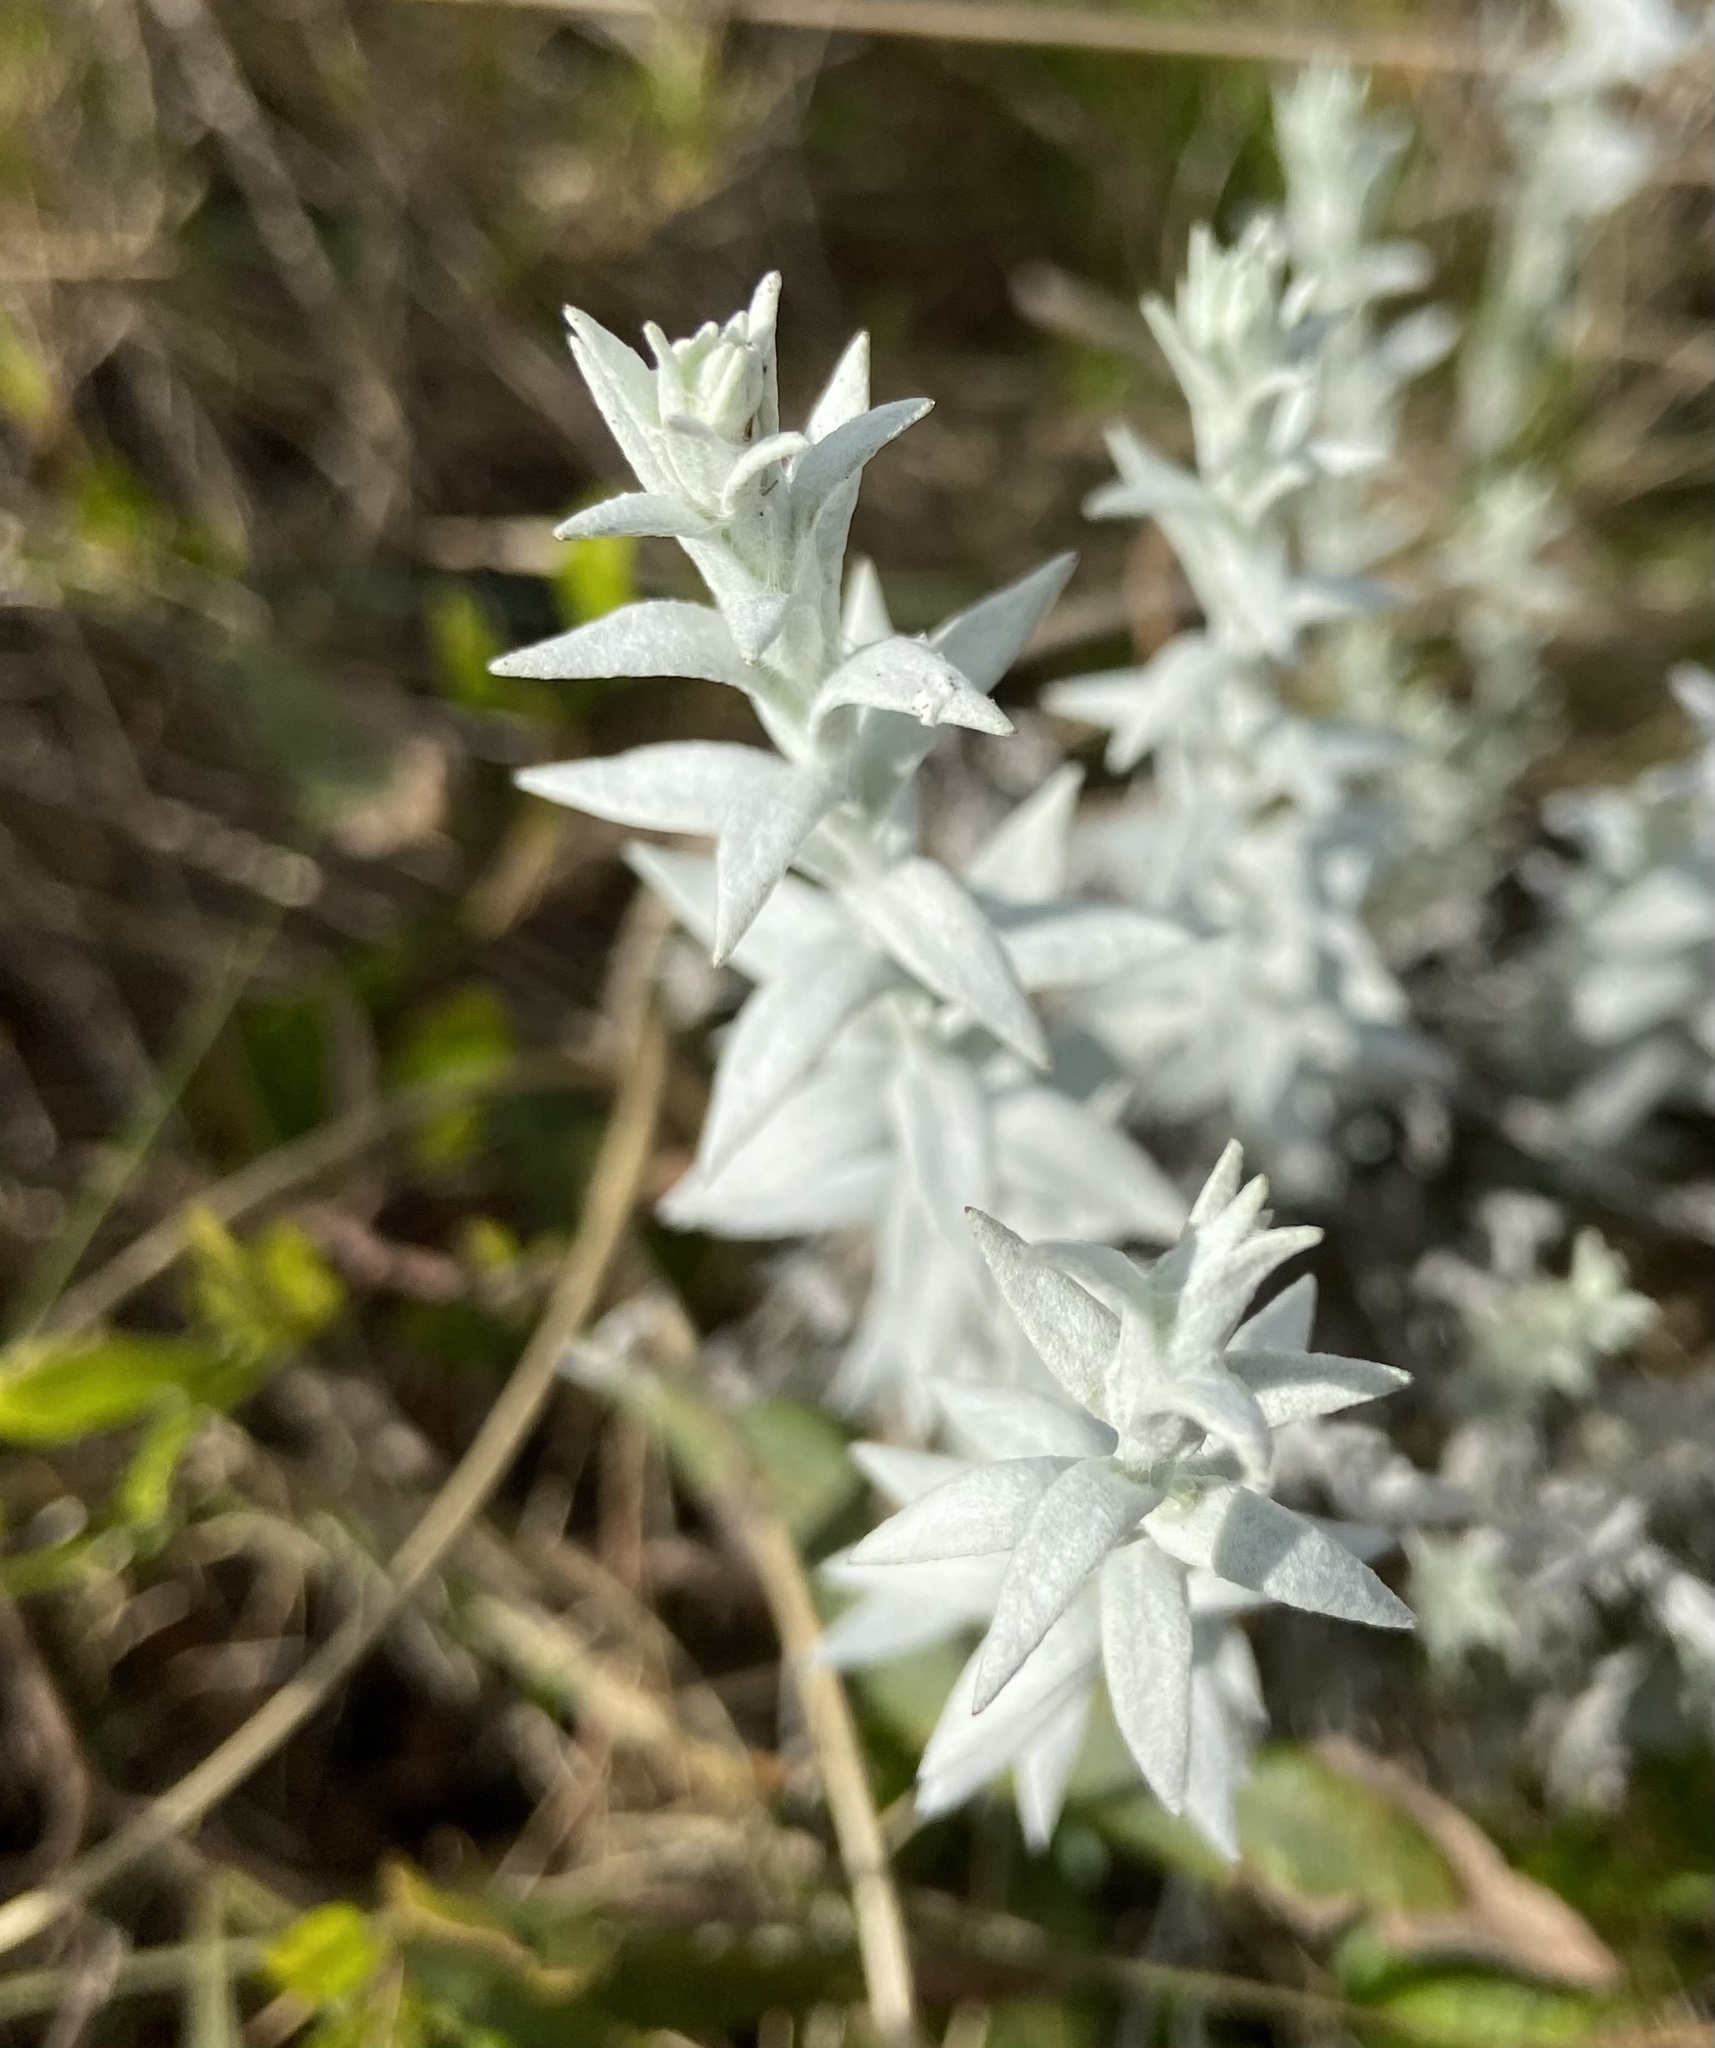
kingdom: Plantae
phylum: Tracheophyta
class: Magnoliopsida
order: Asterales
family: Asteraceae
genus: Lucilia
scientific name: Lucilia acutifolia
